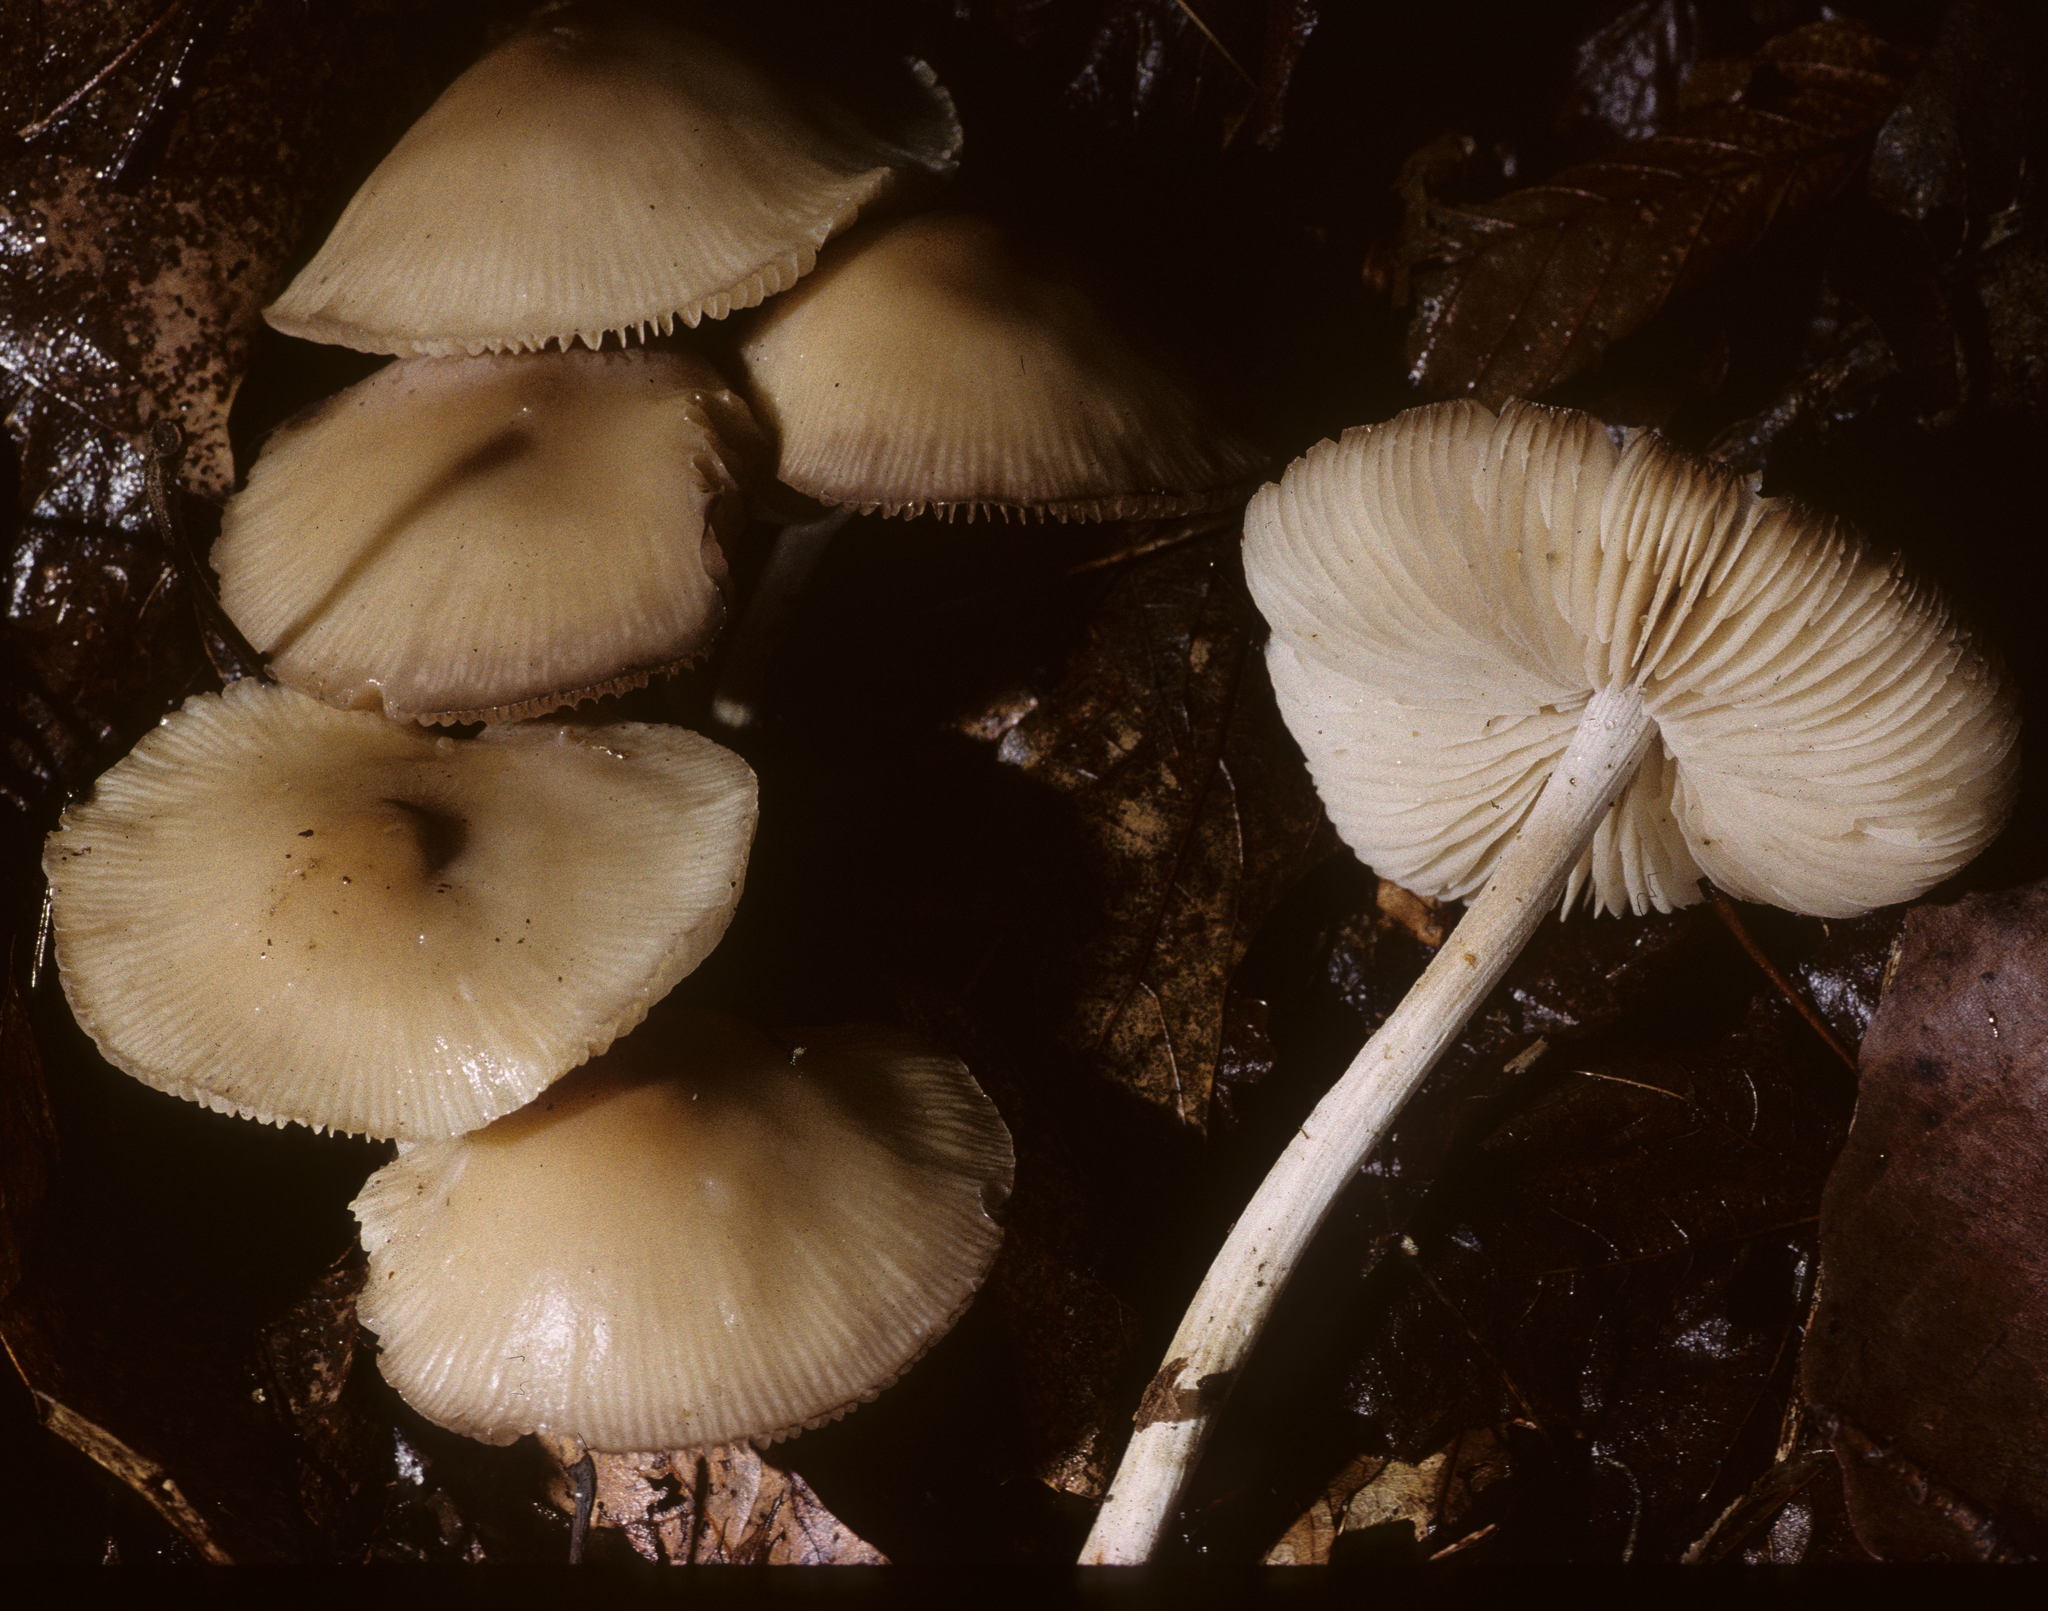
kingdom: Fungi
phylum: Basidiomycota
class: Agaricomycetes
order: Agaricales
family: Marasmiaceae
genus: Marasmius
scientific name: Marasmius nigrodiscus
